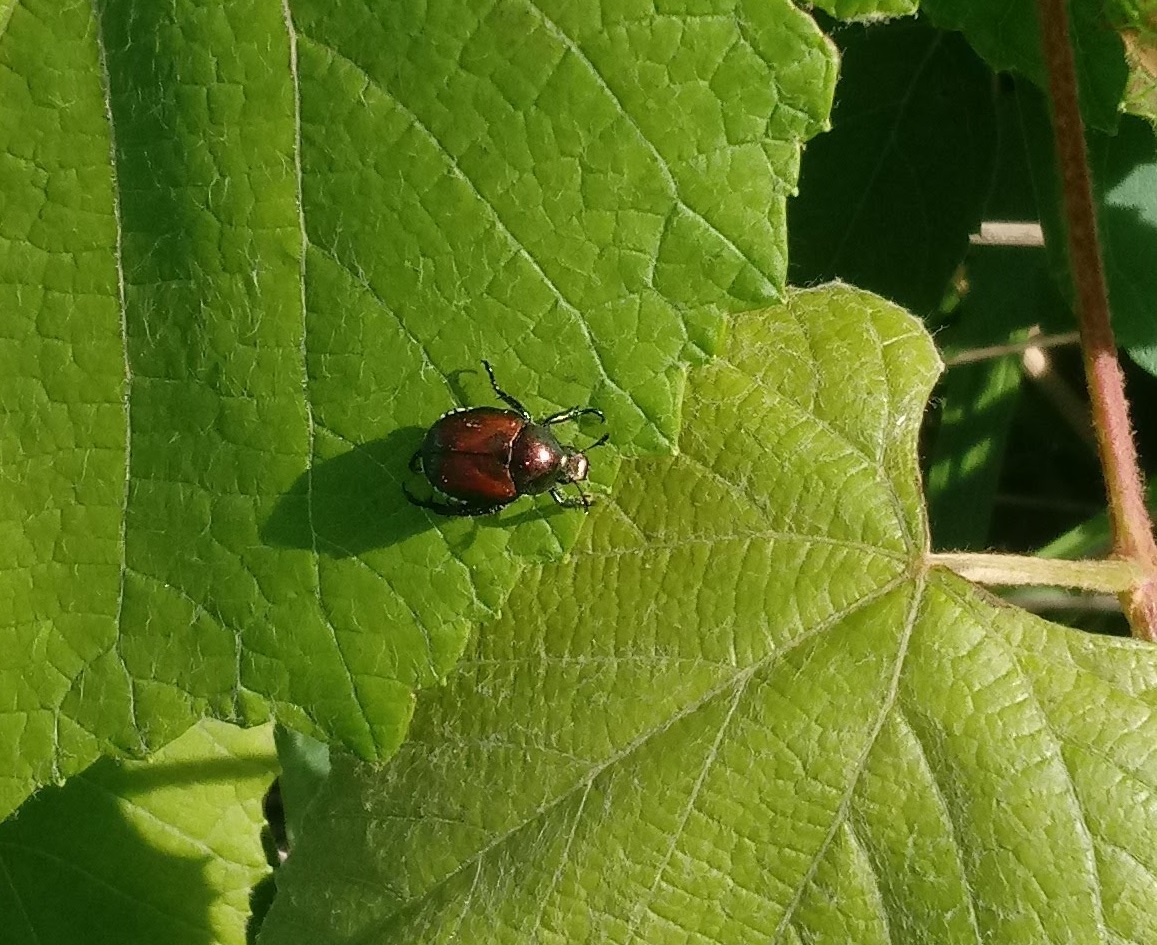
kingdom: Animalia
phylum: Arthropoda
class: Insecta
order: Coleoptera
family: Scarabaeidae
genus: Popillia
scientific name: Popillia japonica
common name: Japanese beetle
